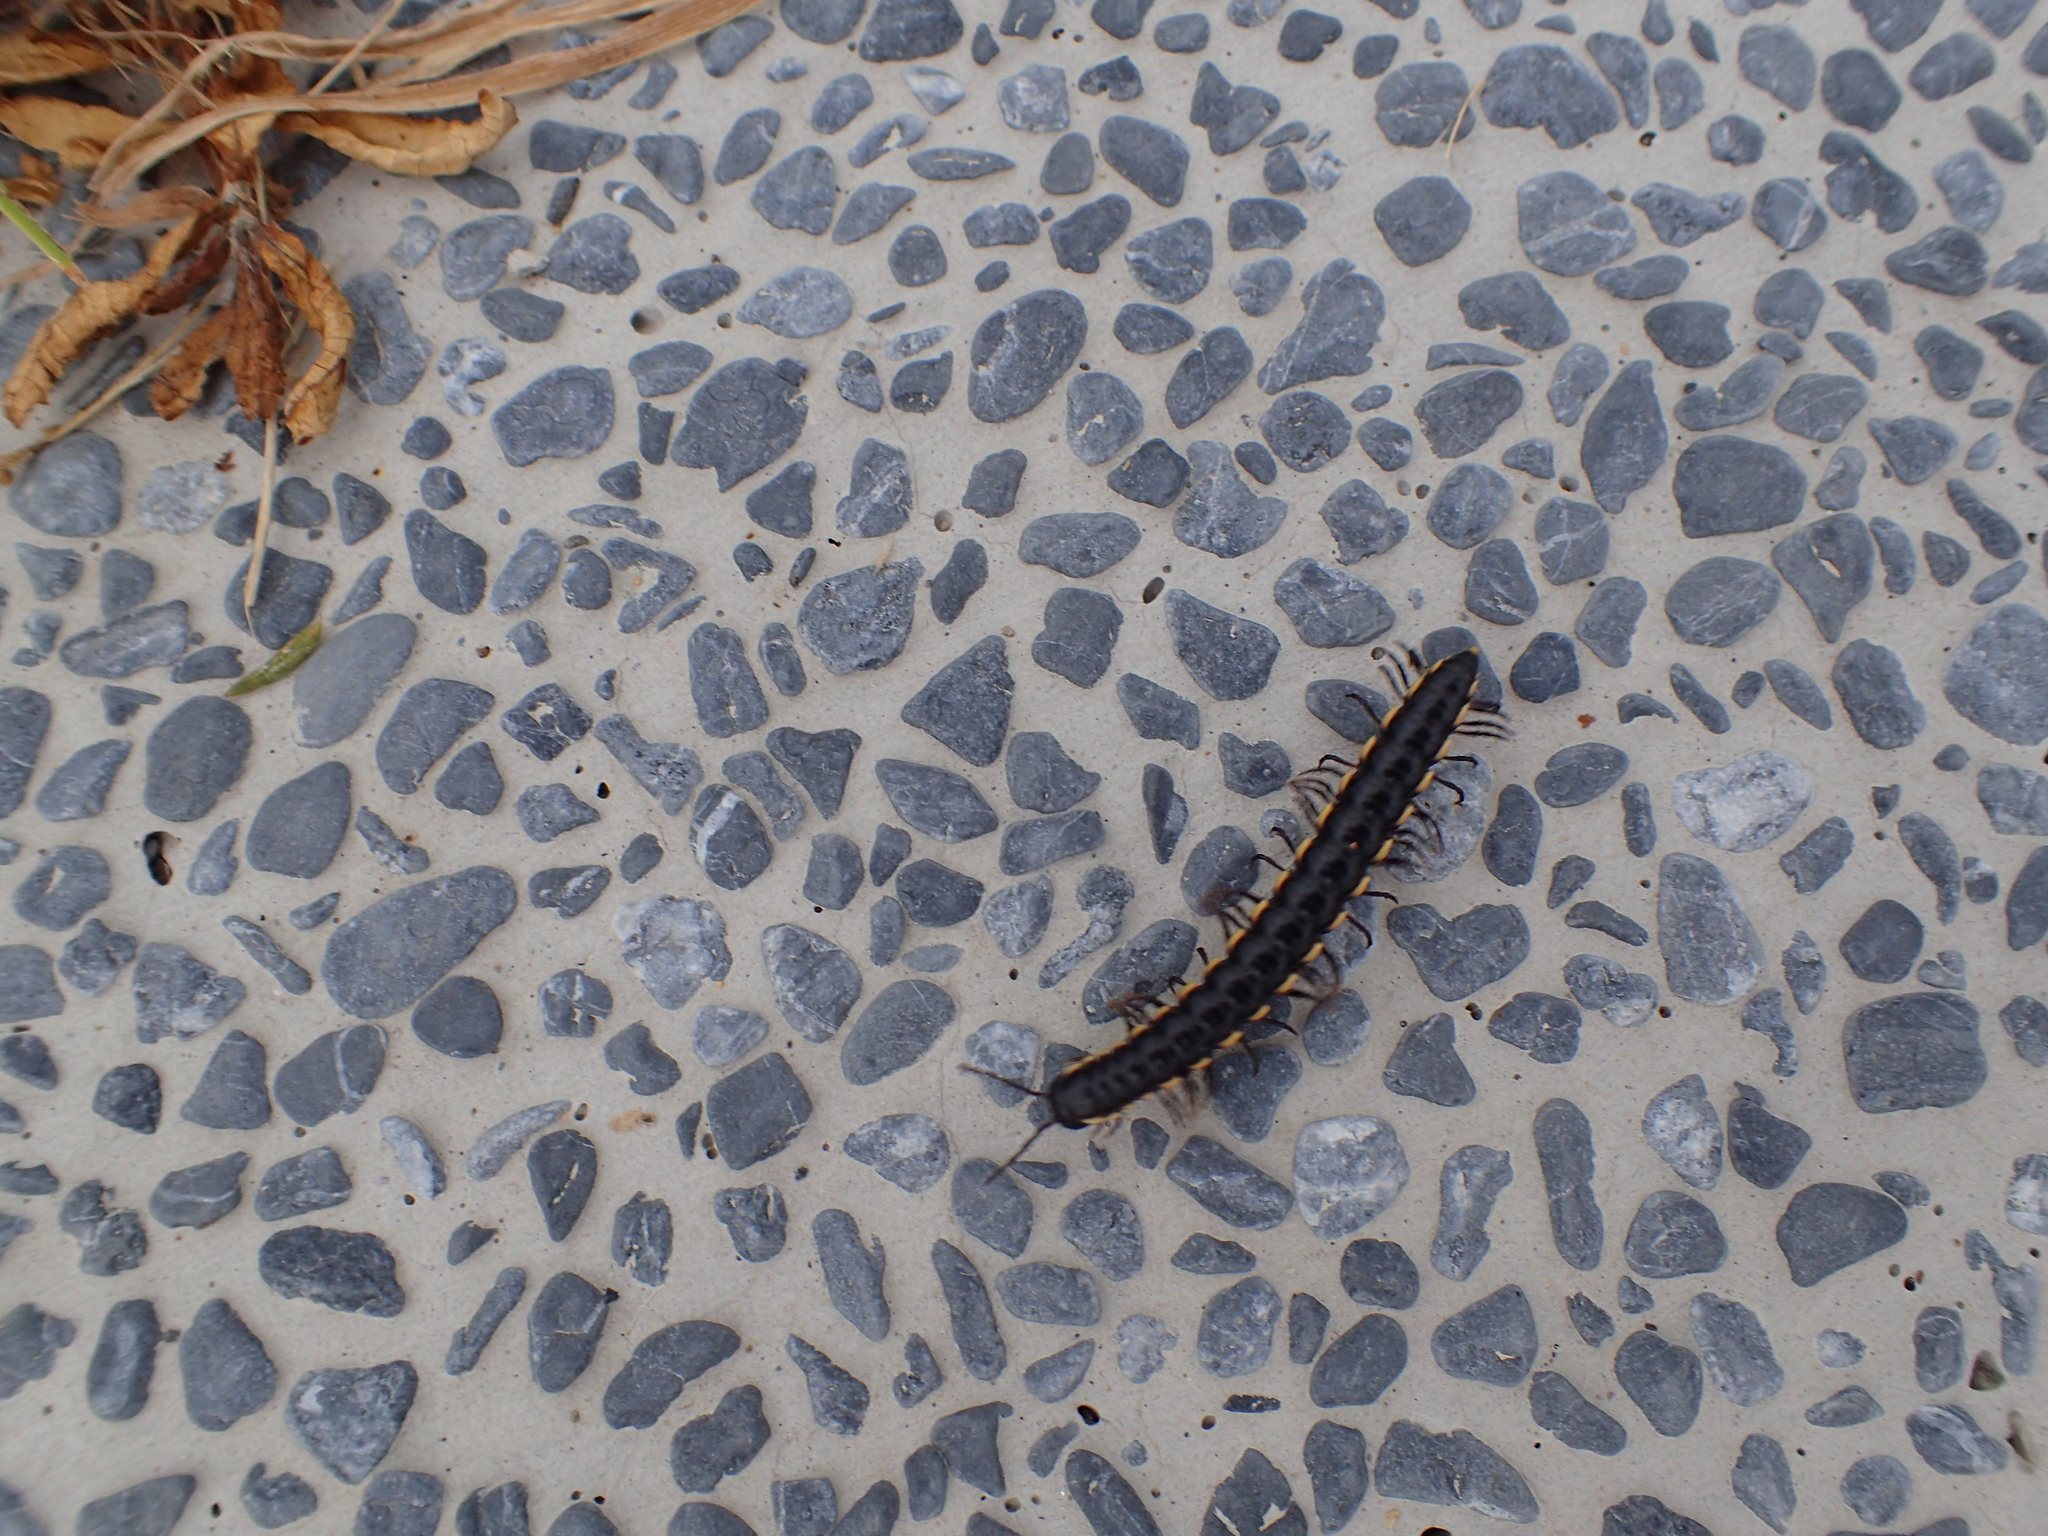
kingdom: Animalia
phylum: Arthropoda
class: Diplopoda
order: Polydesmida
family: Paradoxosomatidae
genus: Orthomorphella
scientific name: Orthomorphella pekuensis
